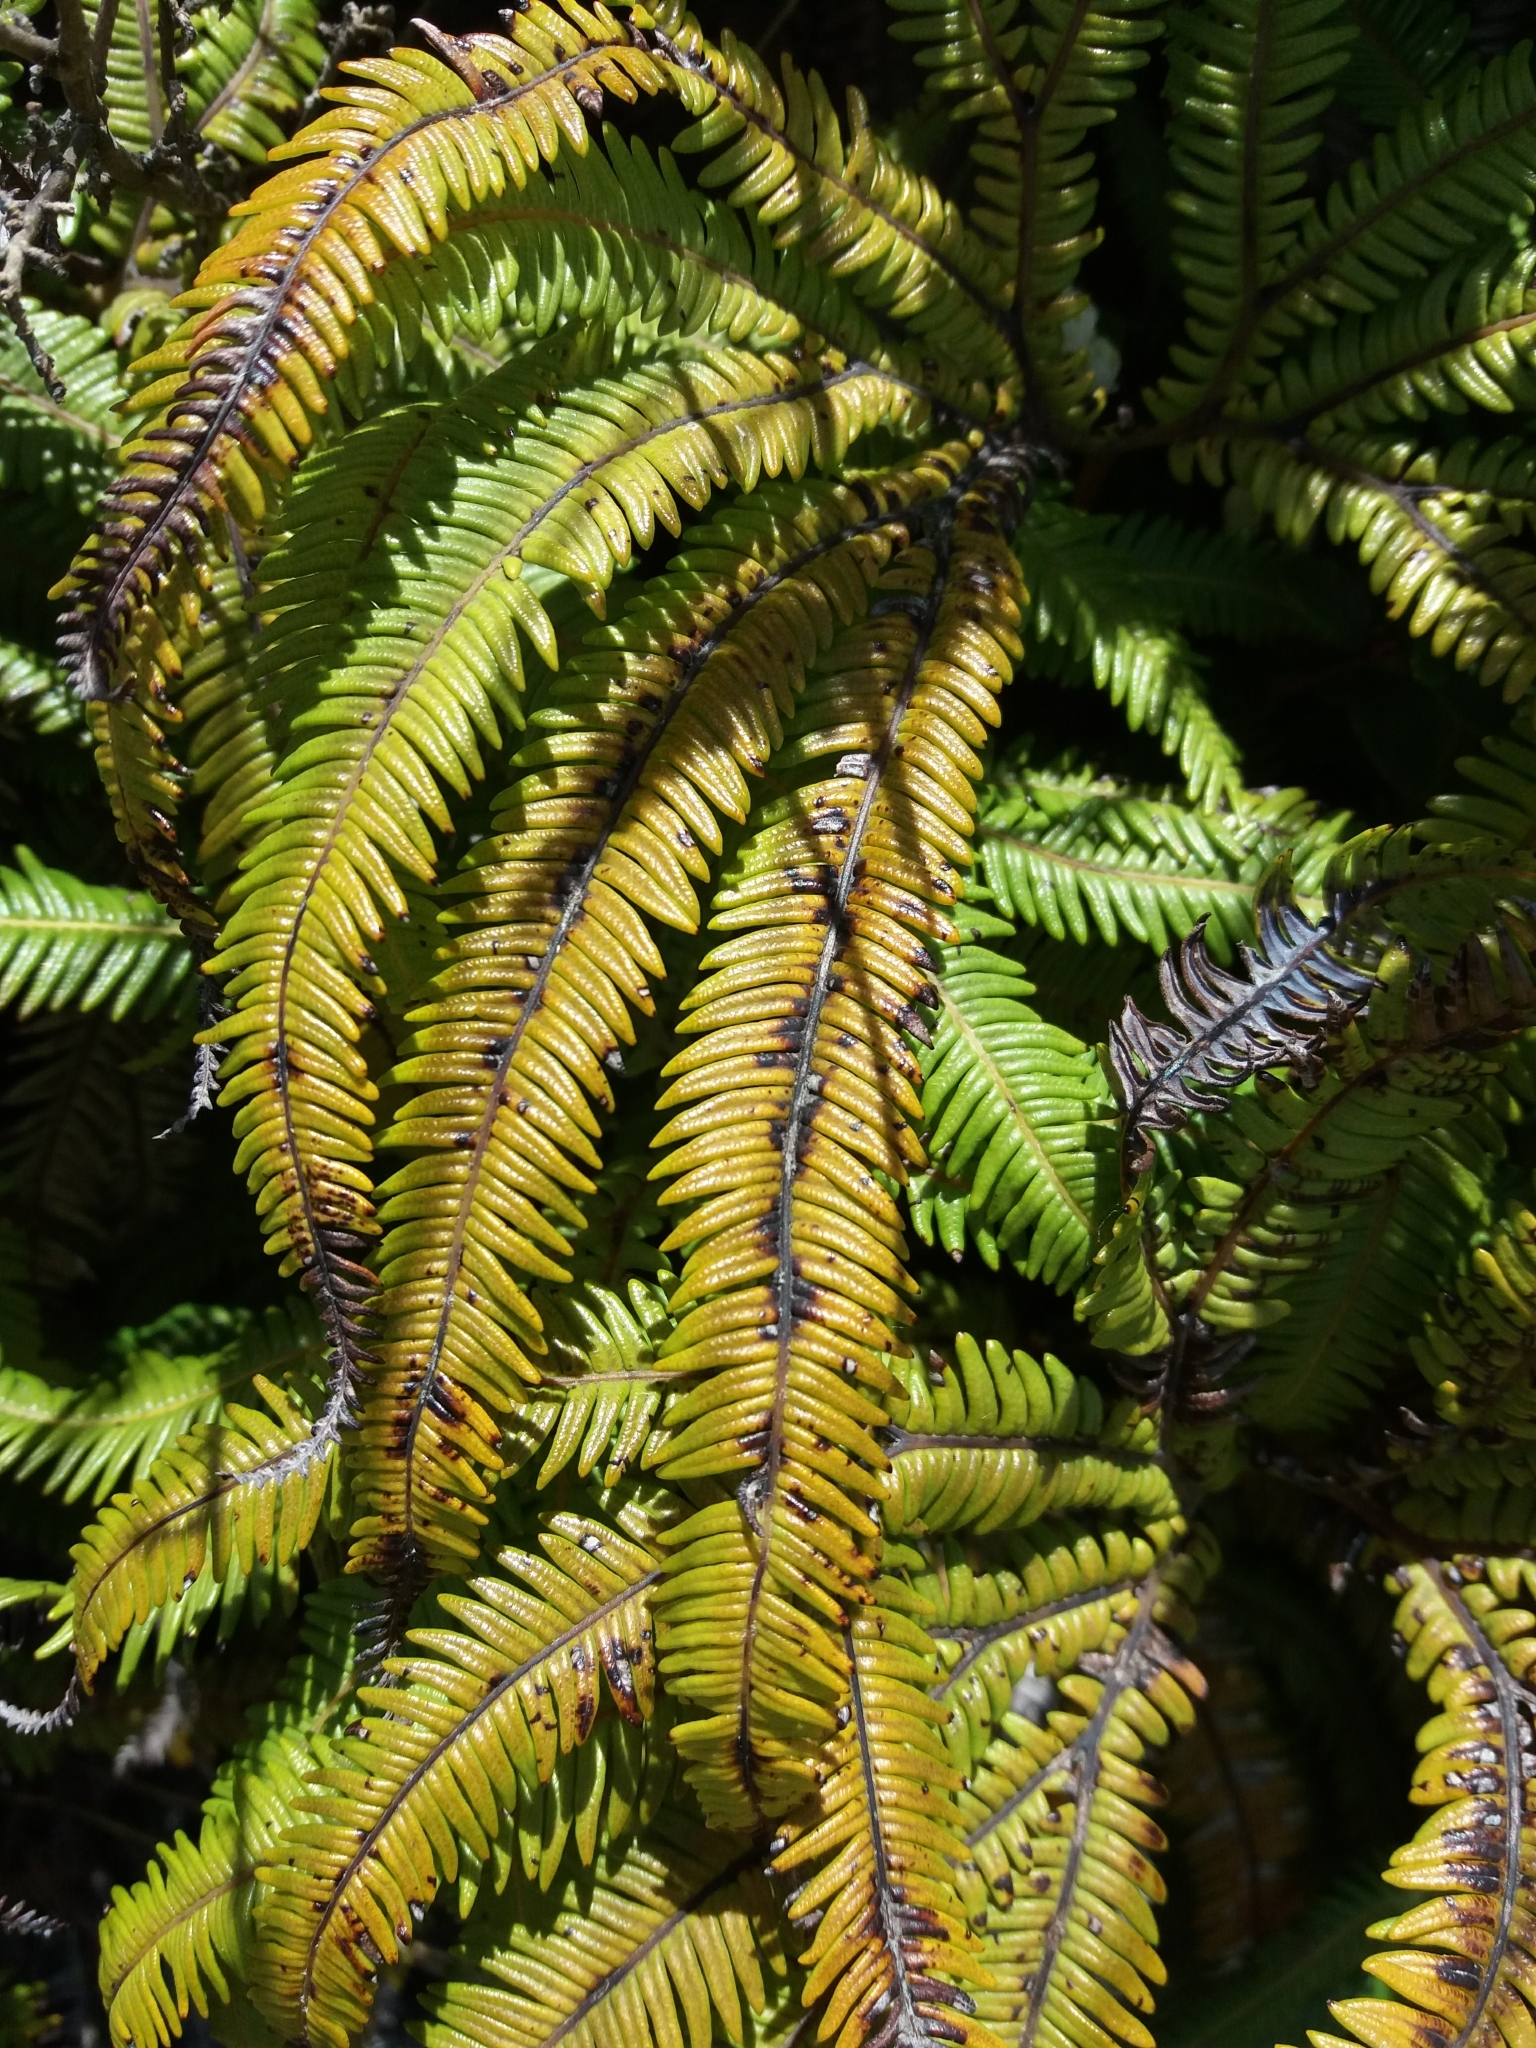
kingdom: Plantae
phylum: Tracheophyta
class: Polypodiopsida
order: Gleicheniales
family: Gleicheniaceae
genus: Sticherus
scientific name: Sticherus cunninghamii
